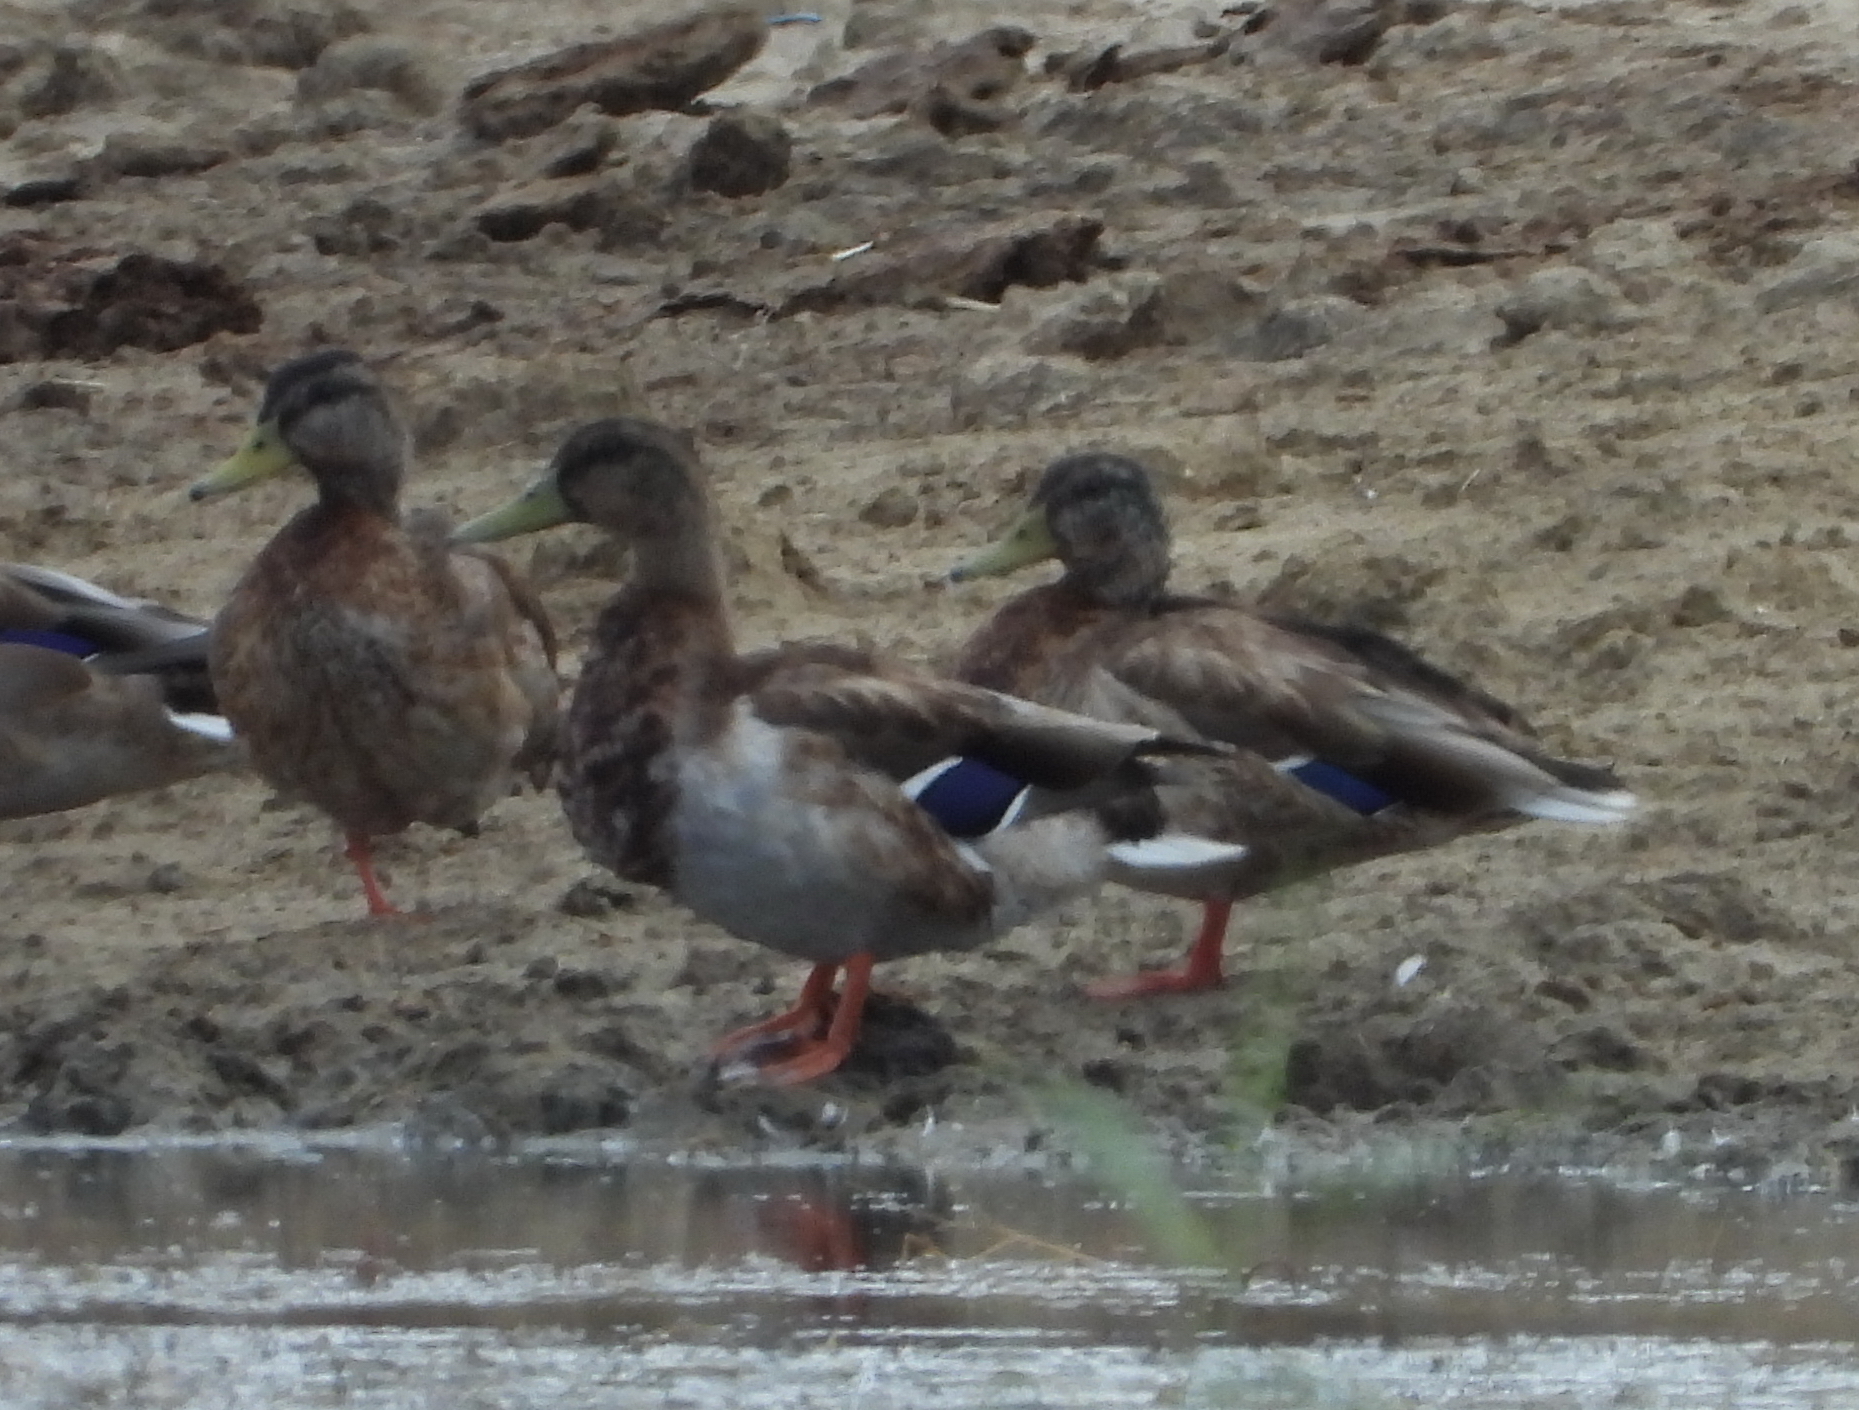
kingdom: Animalia
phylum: Chordata
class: Aves
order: Anseriformes
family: Anatidae
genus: Anas
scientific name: Anas platyrhynchos
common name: Mallard
